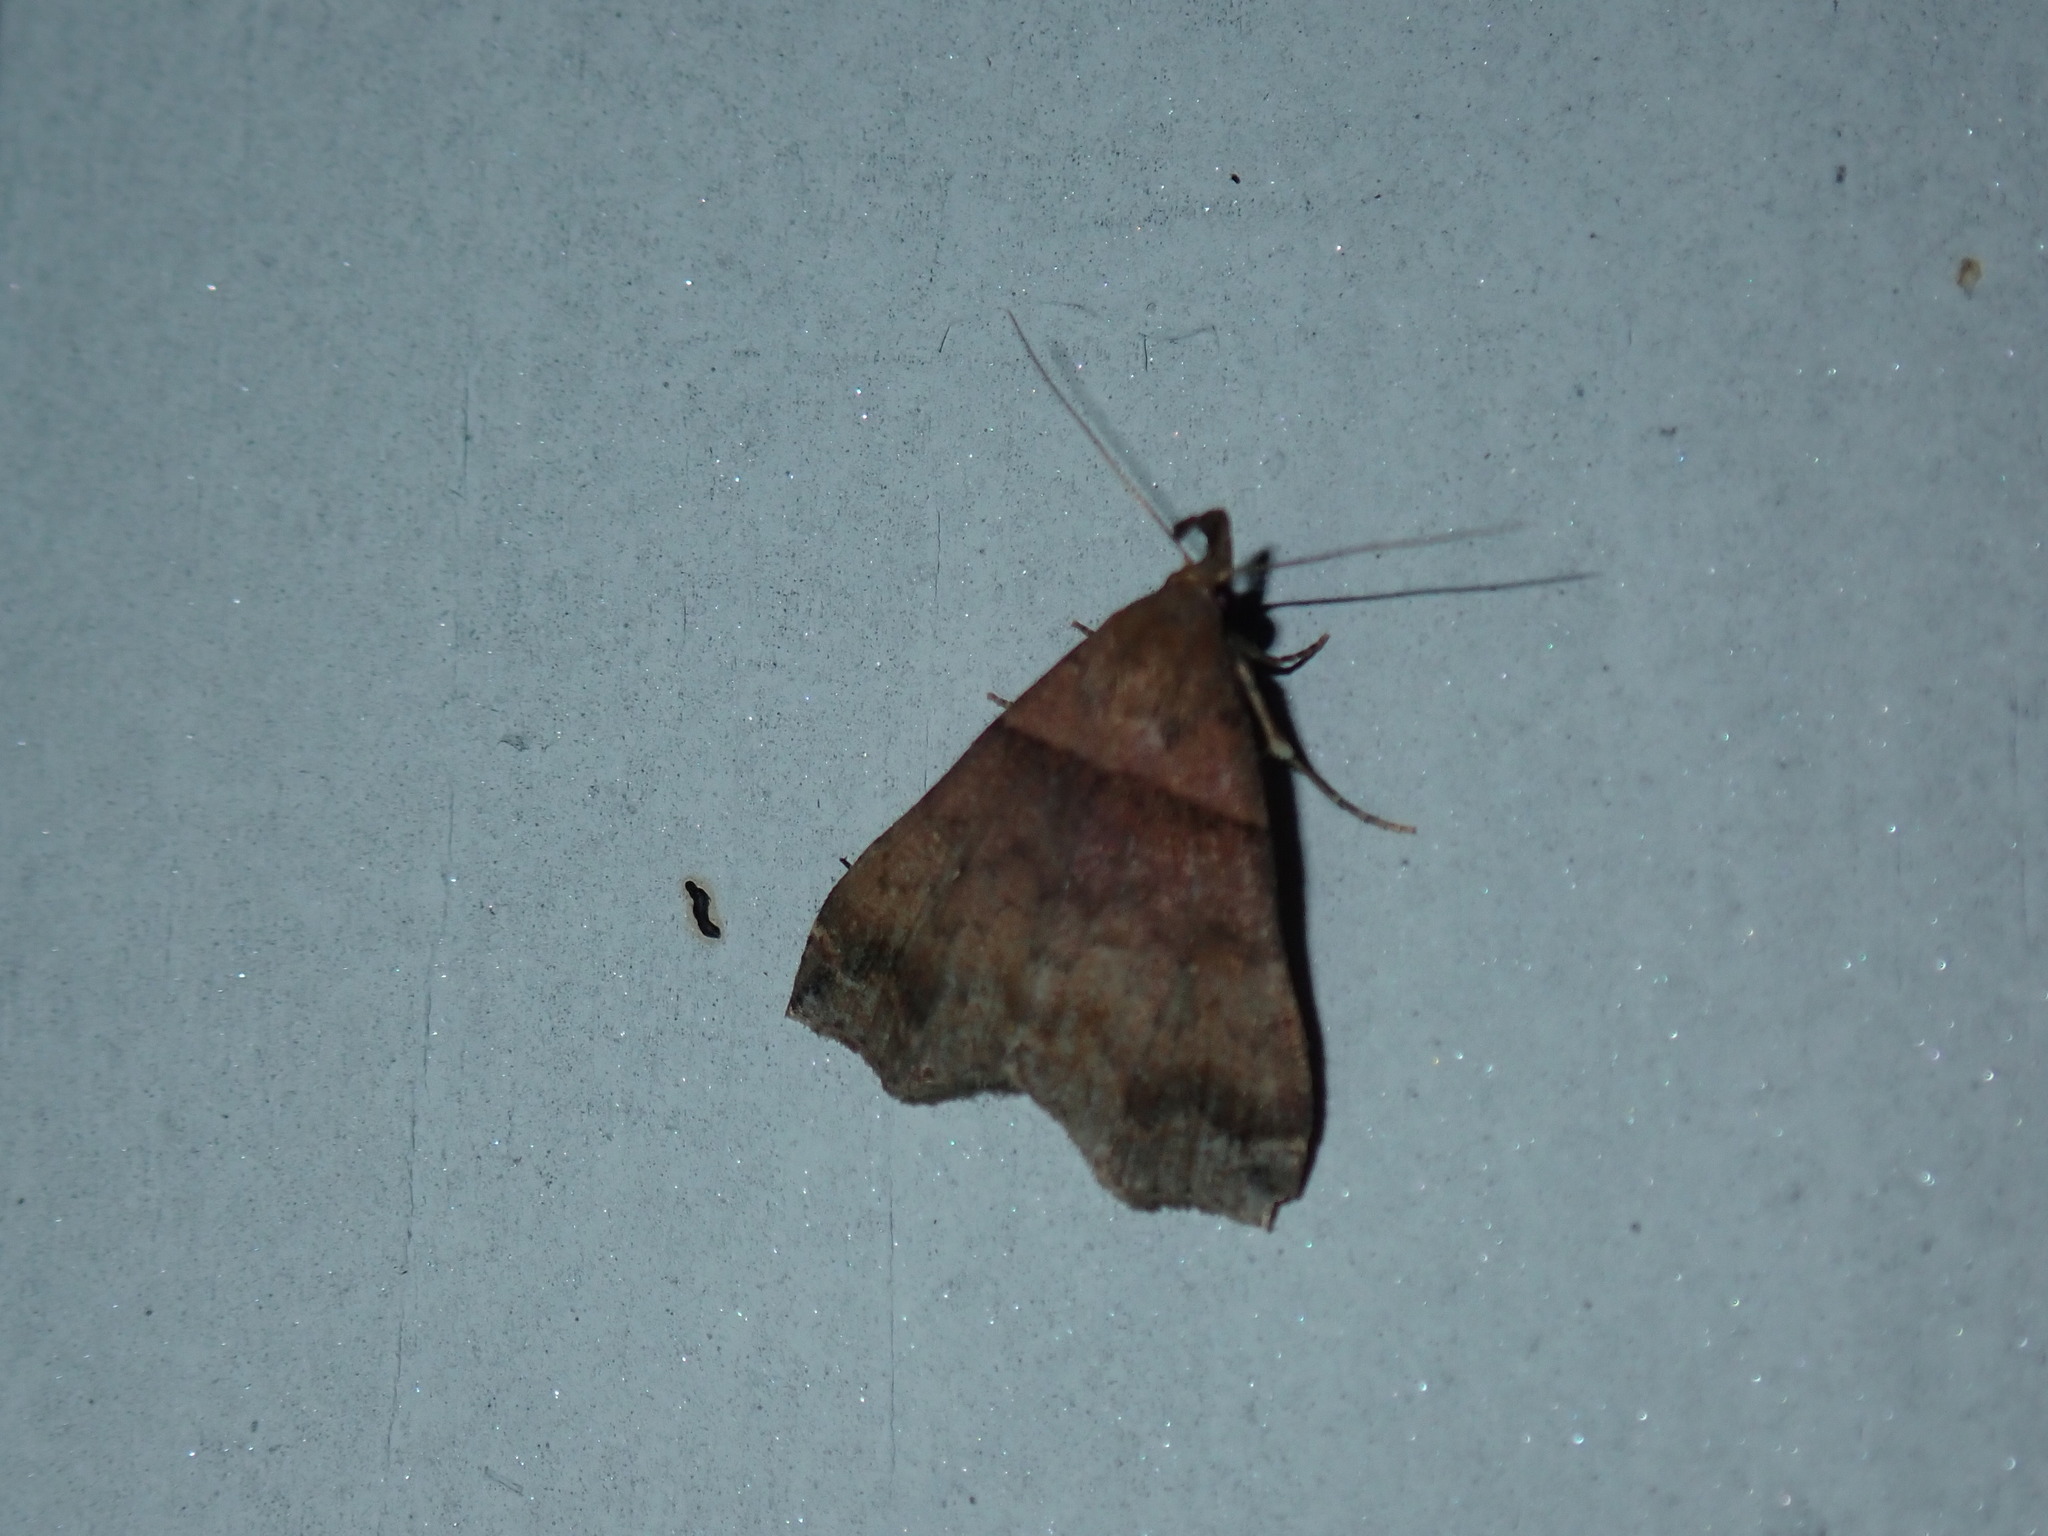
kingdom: Animalia
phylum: Arthropoda
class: Insecta
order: Lepidoptera
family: Erebidae
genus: Lascoria
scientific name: Lascoria ambigualis
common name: Ambiguous moth
